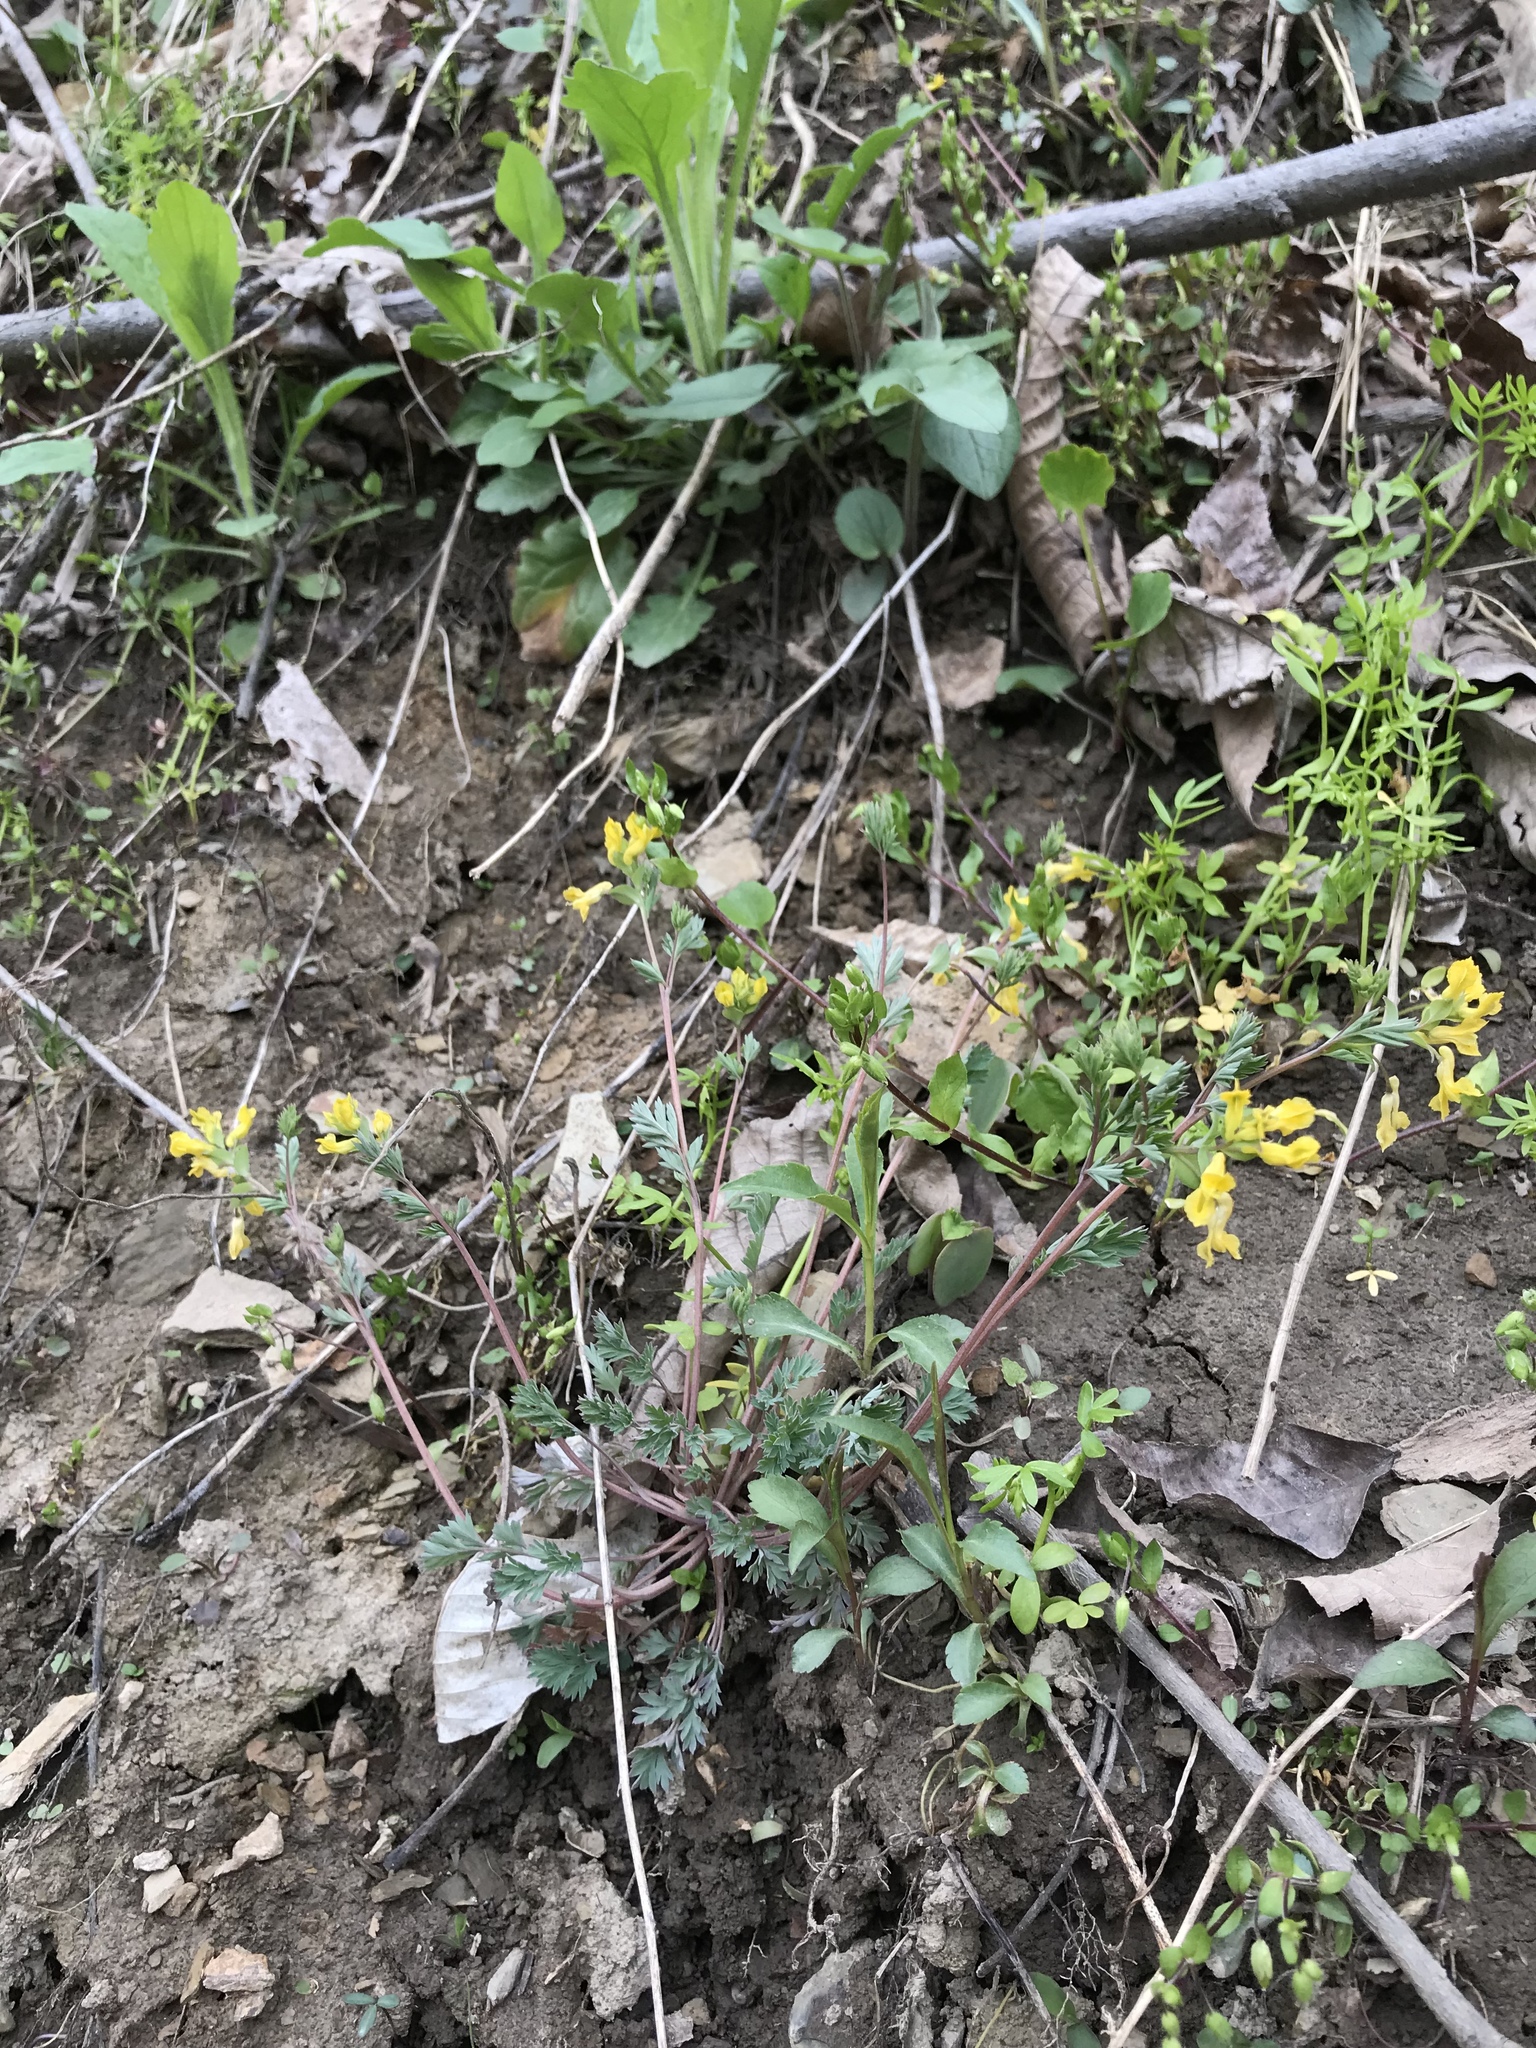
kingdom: Plantae
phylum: Tracheophyta
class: Magnoliopsida
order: Ranunculales
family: Papaveraceae
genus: Corydalis
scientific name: Corydalis flavula
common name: Yellow corydalis
